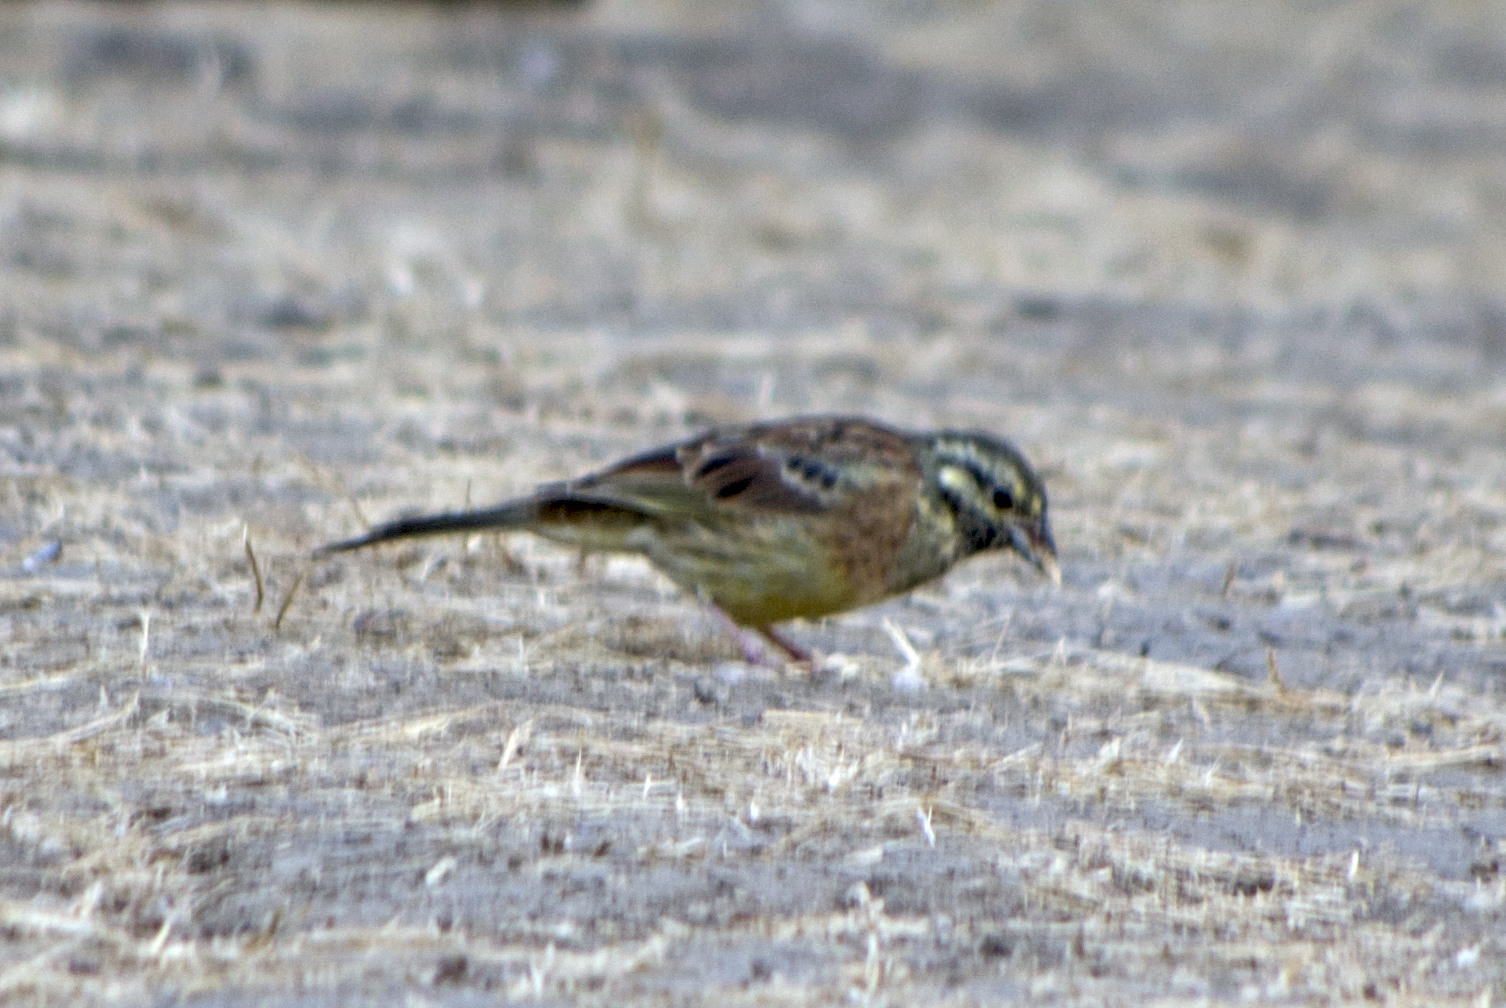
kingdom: Animalia
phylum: Chordata
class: Aves
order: Passeriformes
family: Emberizidae
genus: Emberiza
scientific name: Emberiza cirlus
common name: Cirl bunting
